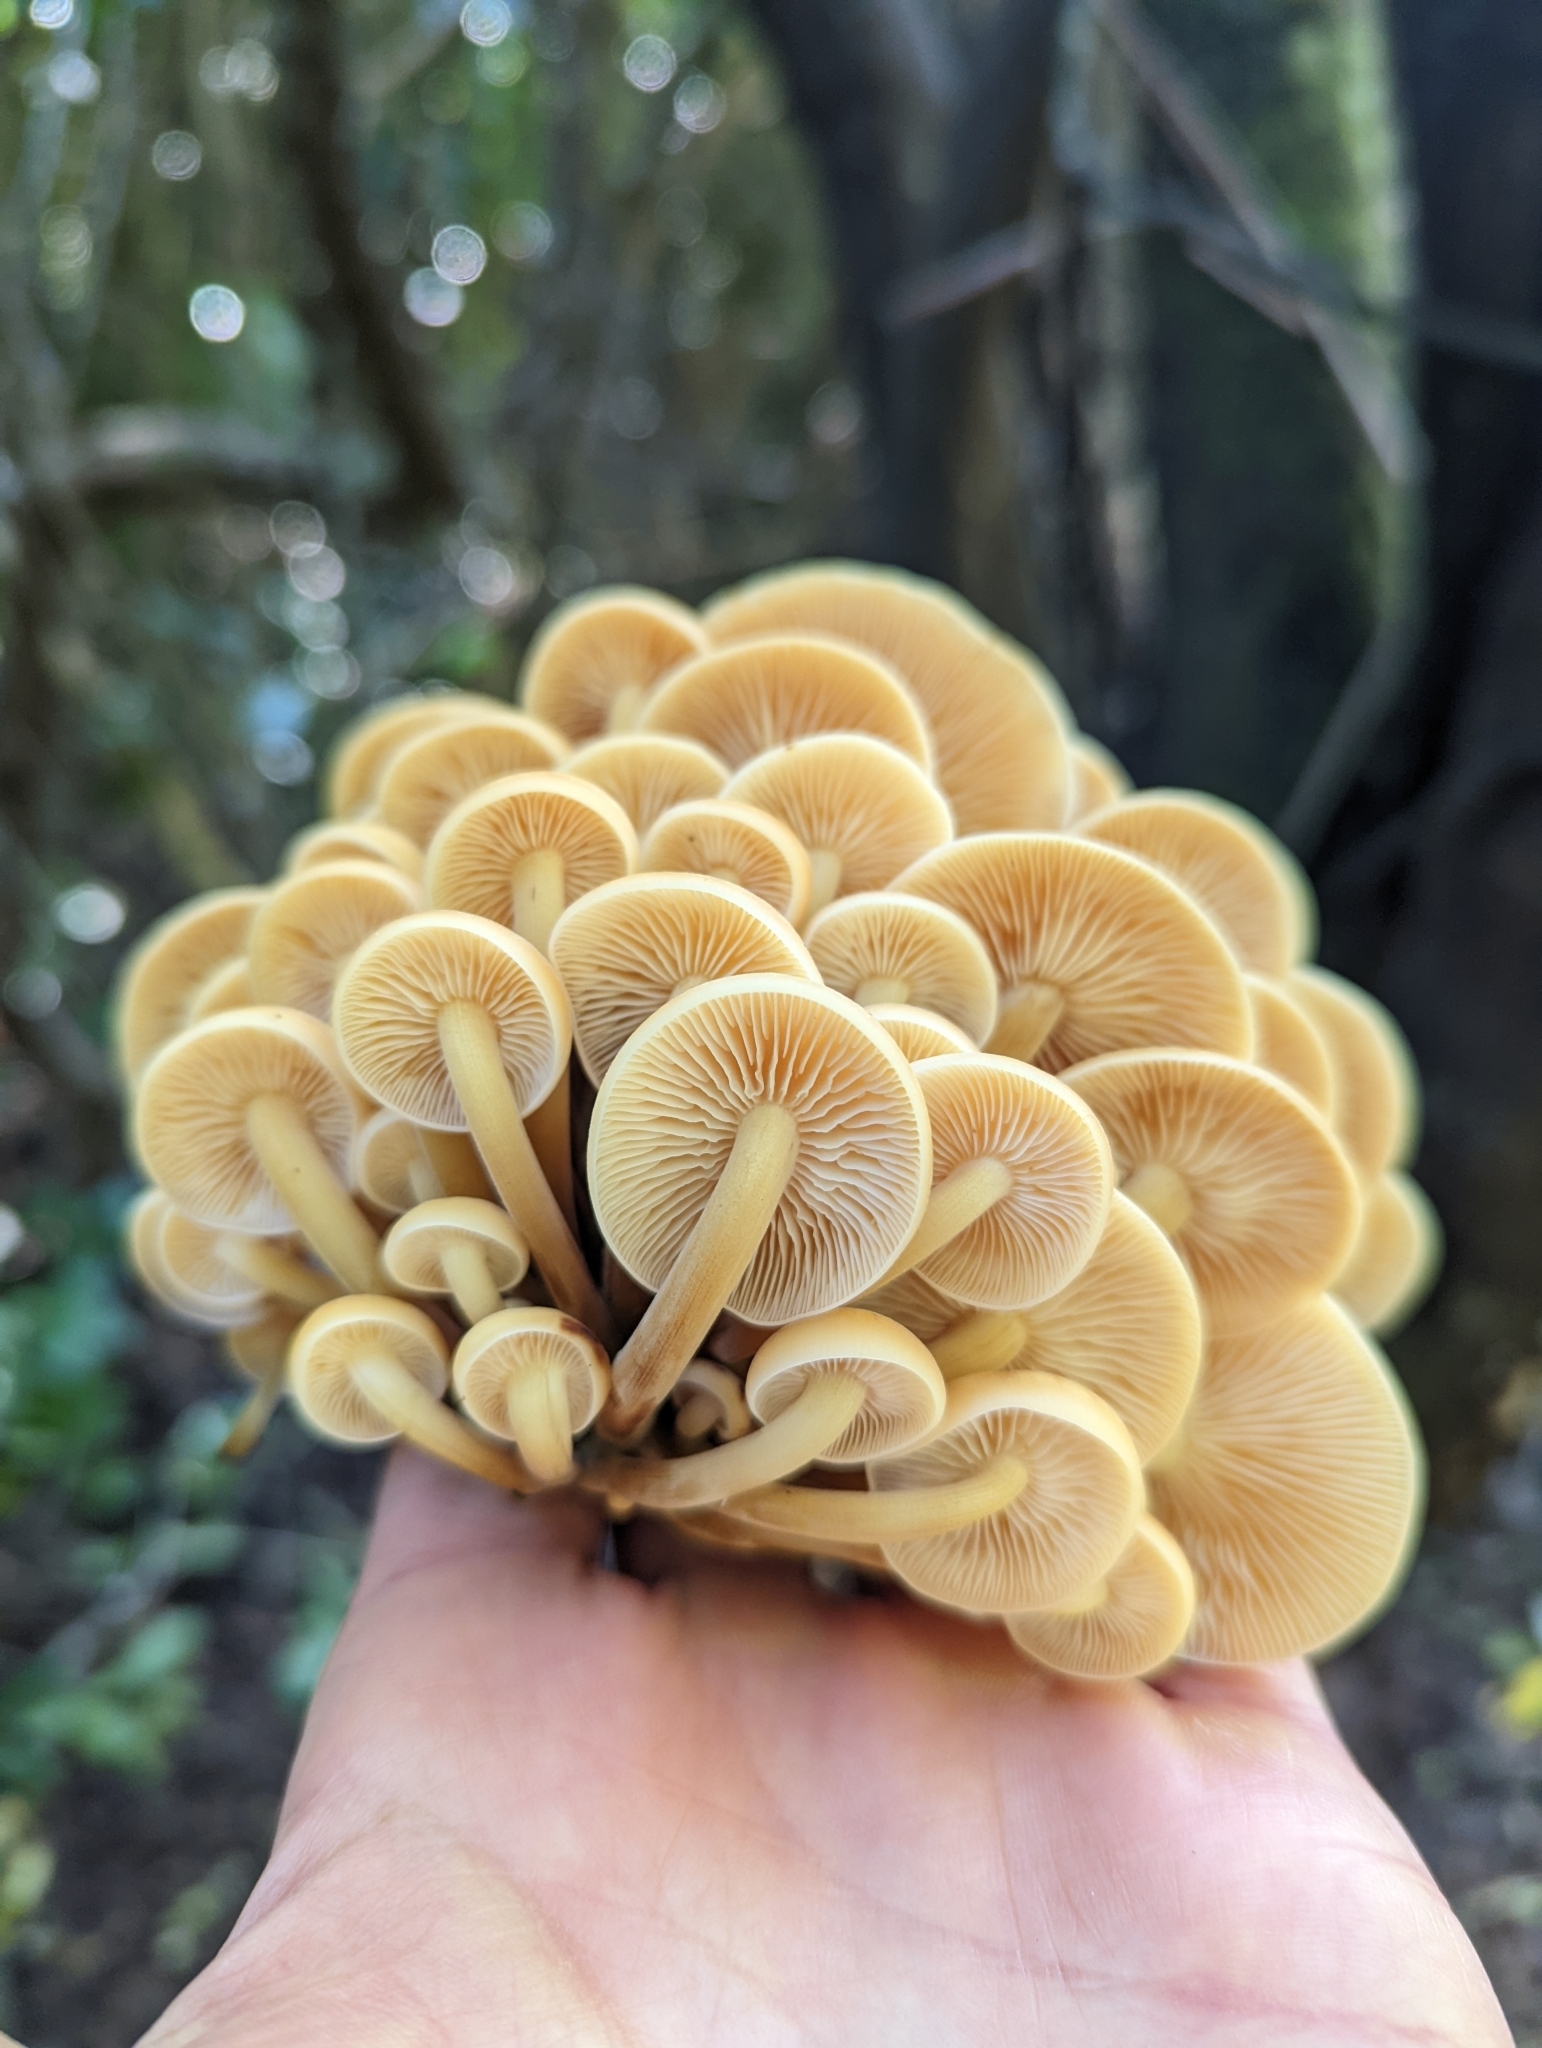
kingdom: Fungi
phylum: Basidiomycota
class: Agaricomycetes
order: Agaricales
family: Physalacriaceae
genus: Flammulina
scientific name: Flammulina velutipes
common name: Velvet shank
